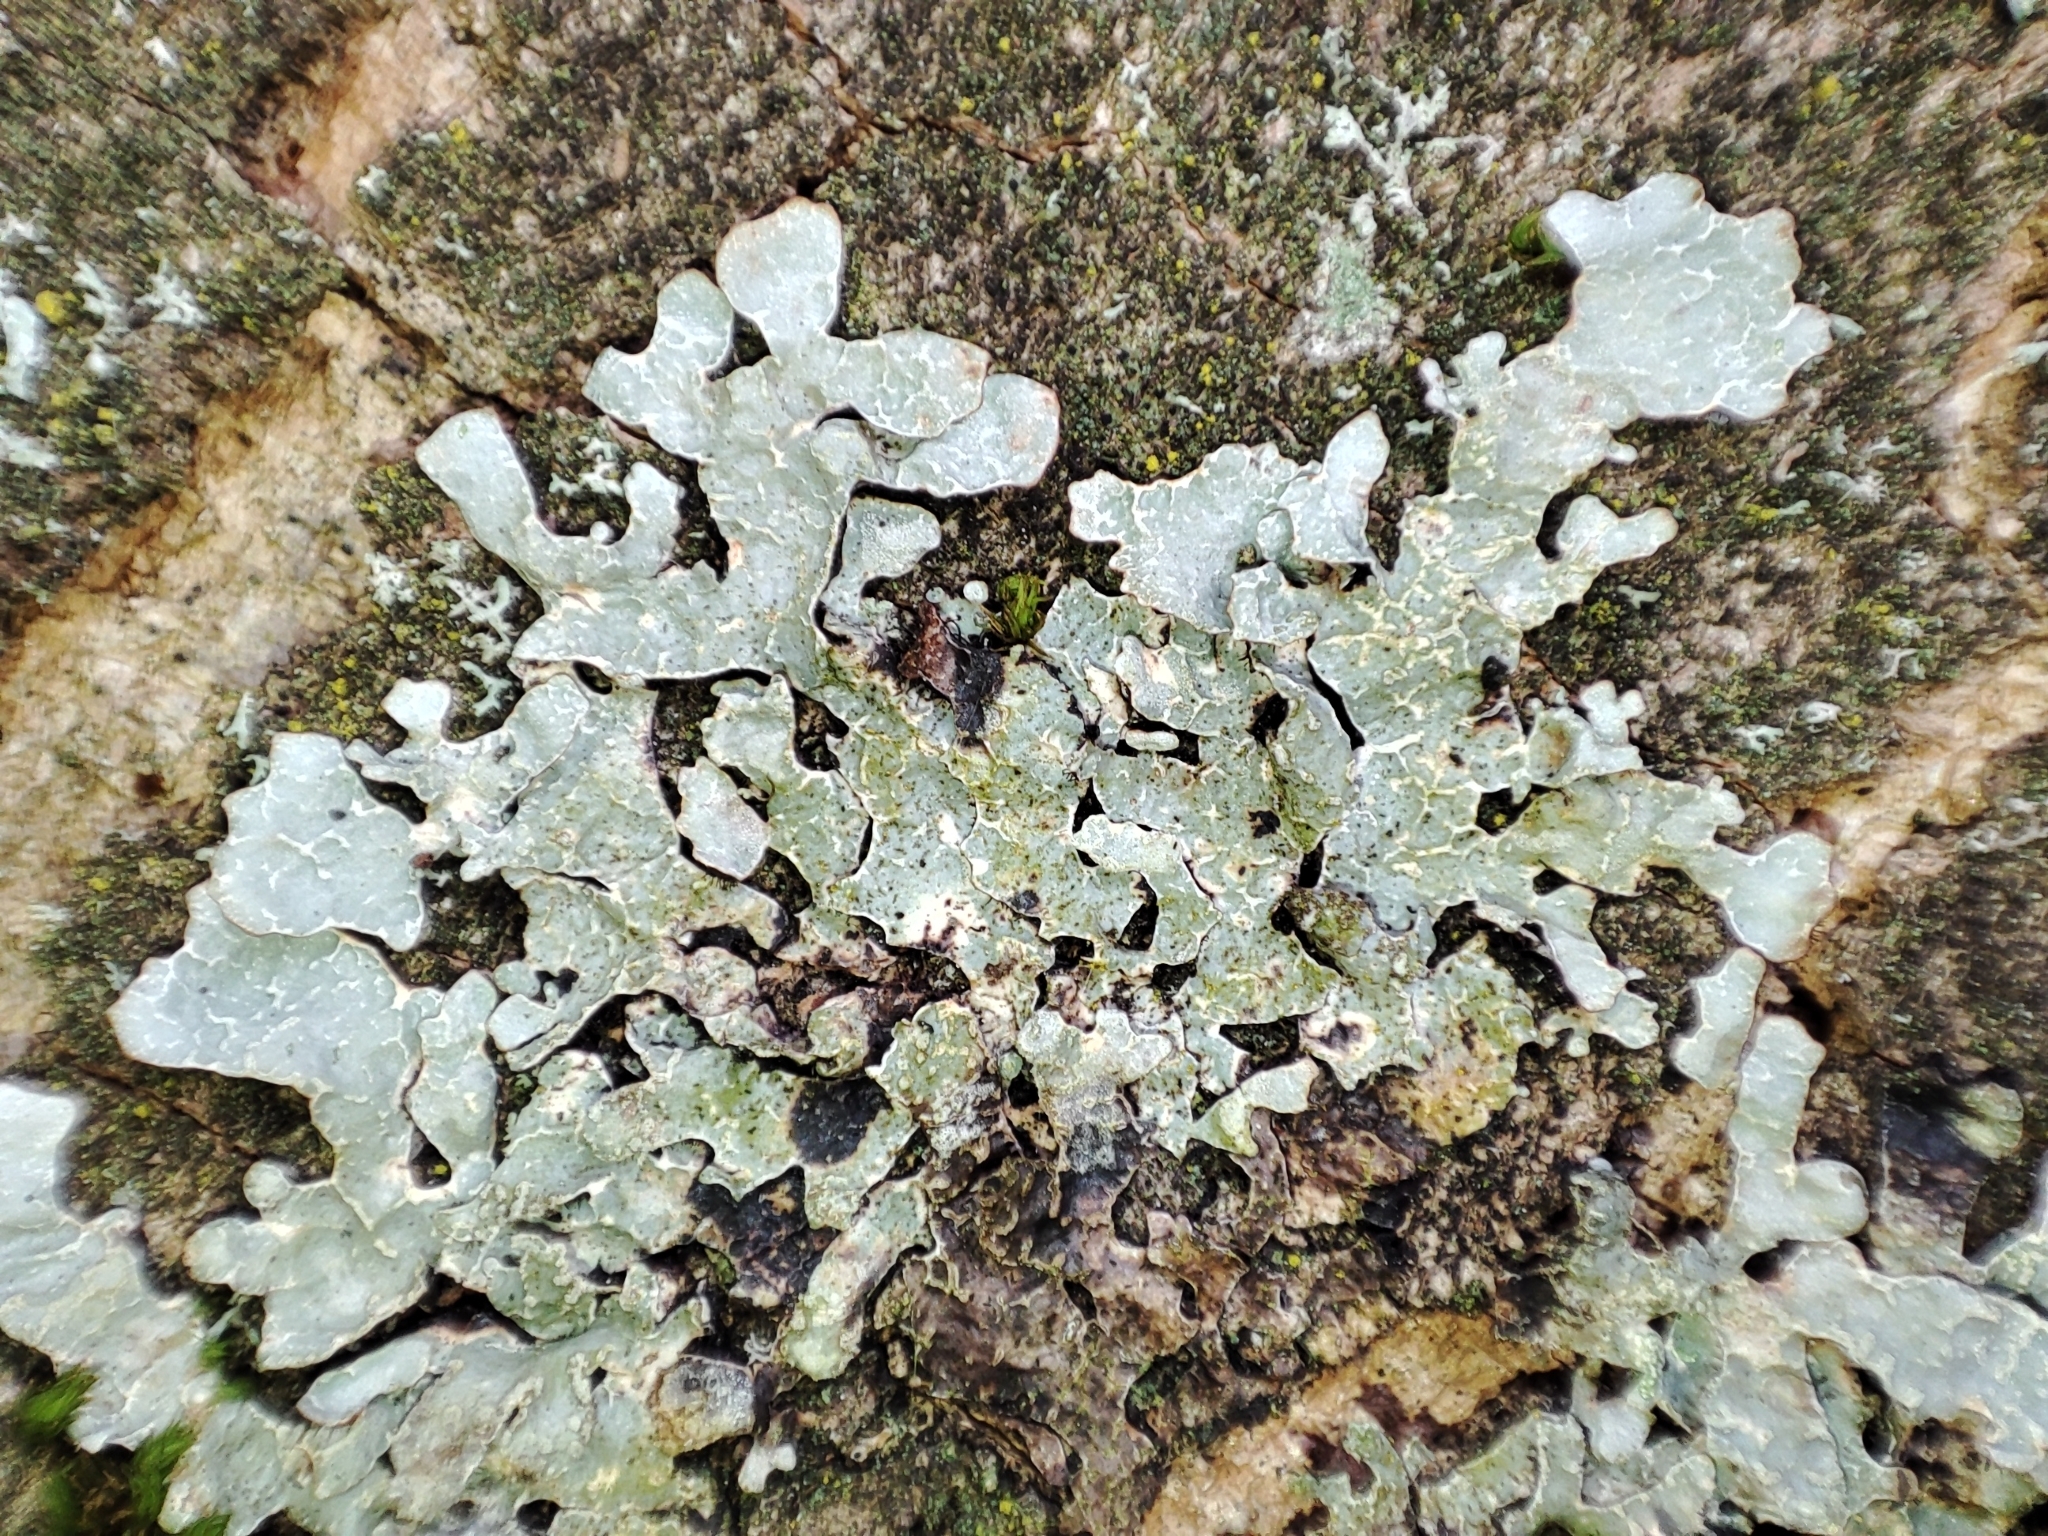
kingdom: Fungi
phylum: Ascomycota
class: Lecanoromycetes
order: Lecanorales
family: Parmeliaceae
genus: Parmelia
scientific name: Parmelia sulcata
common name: Netted shield lichen
